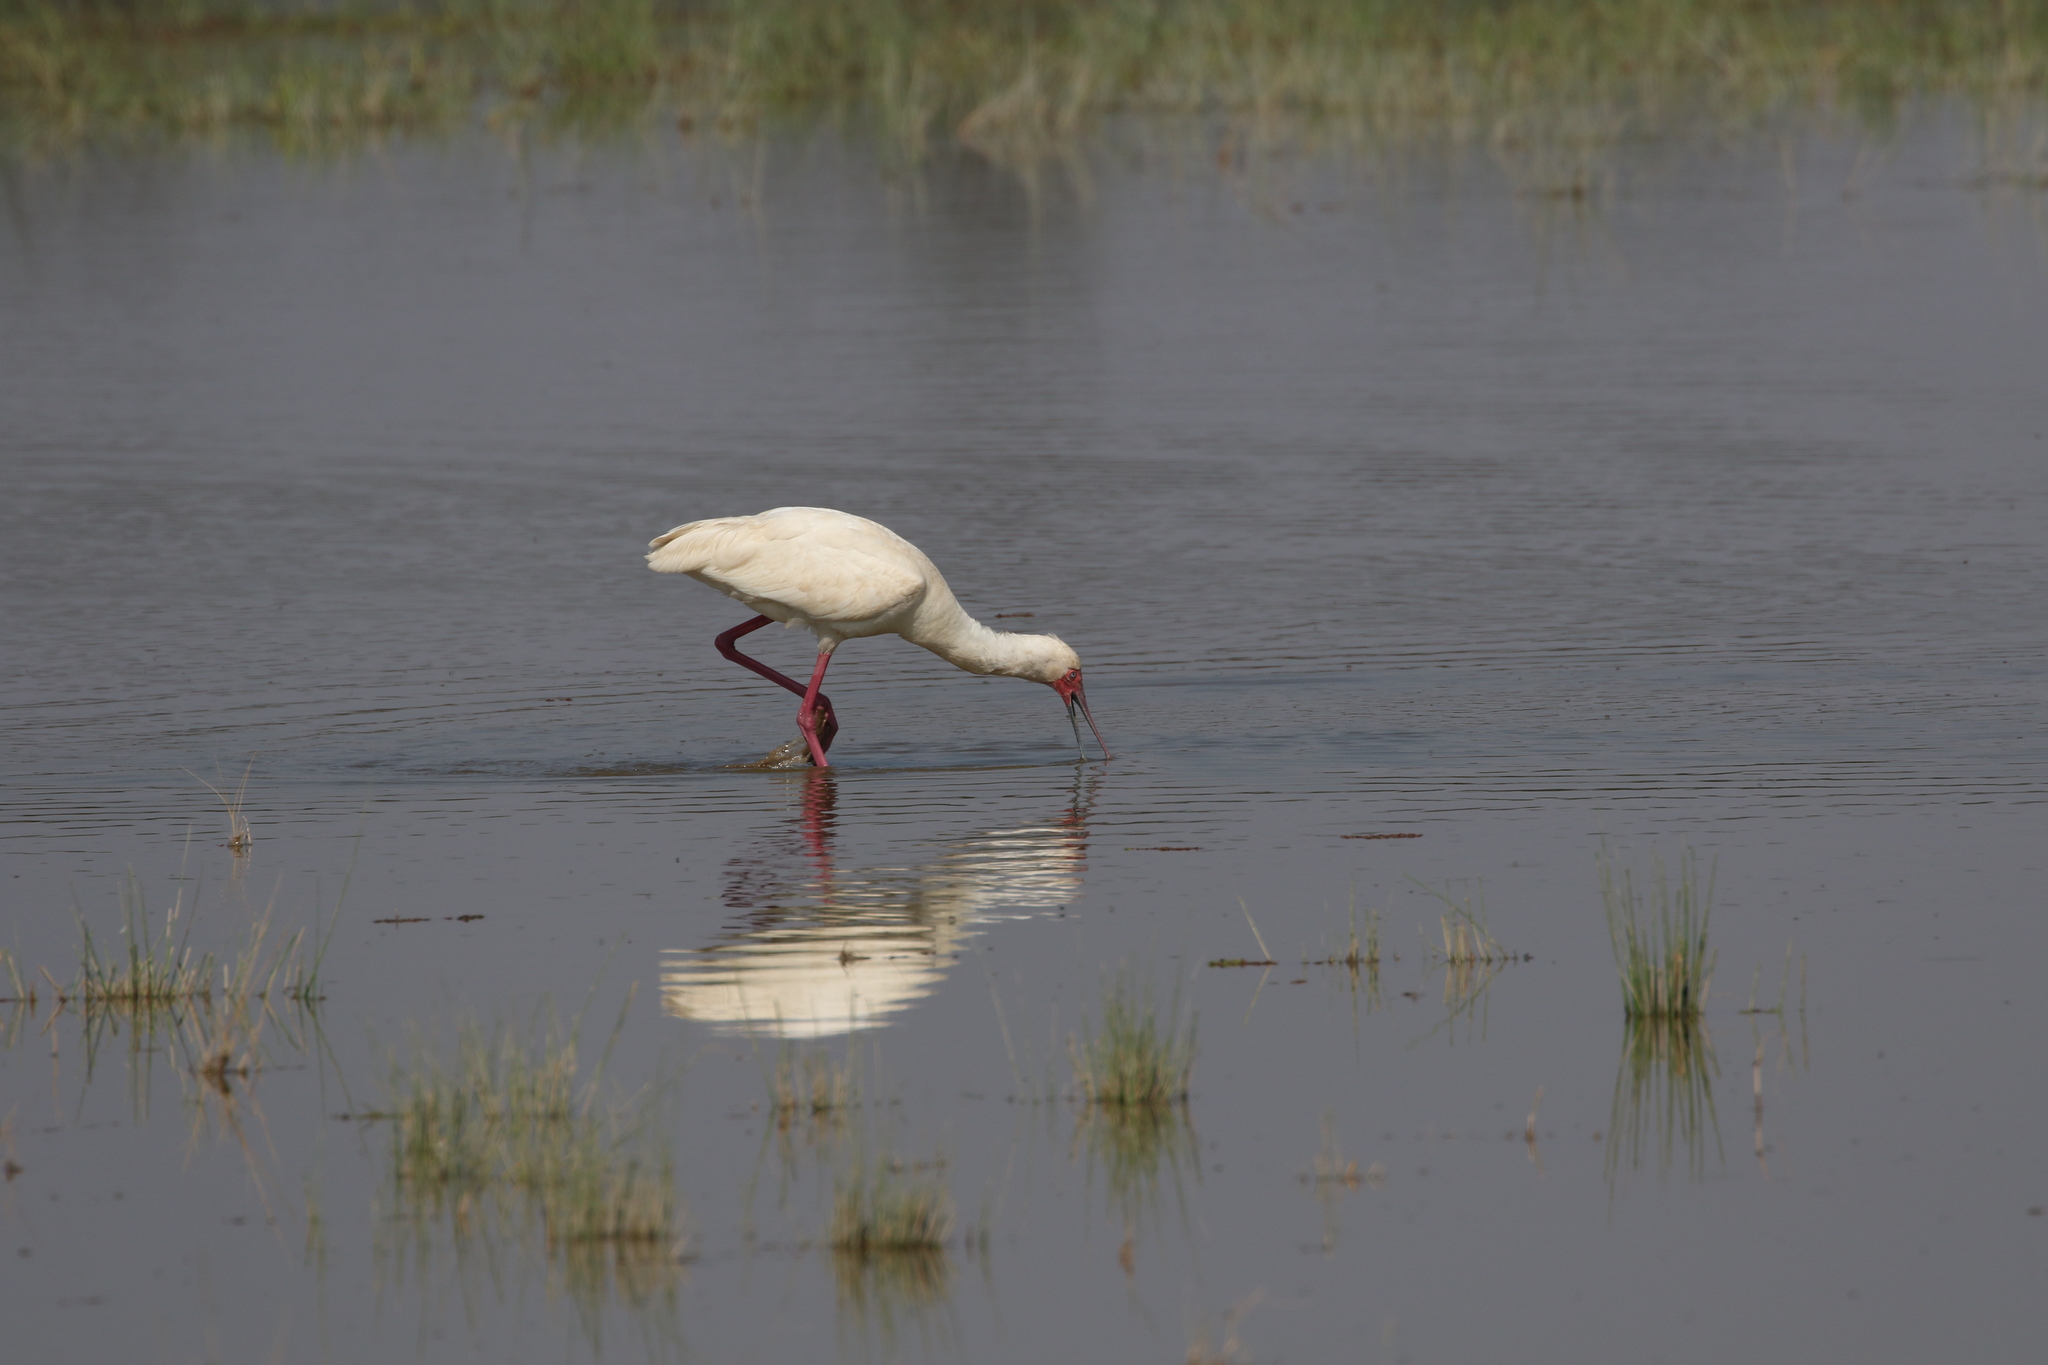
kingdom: Animalia
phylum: Chordata
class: Aves
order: Pelecaniformes
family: Threskiornithidae
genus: Platalea
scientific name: Platalea alba
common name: African spoonbill
